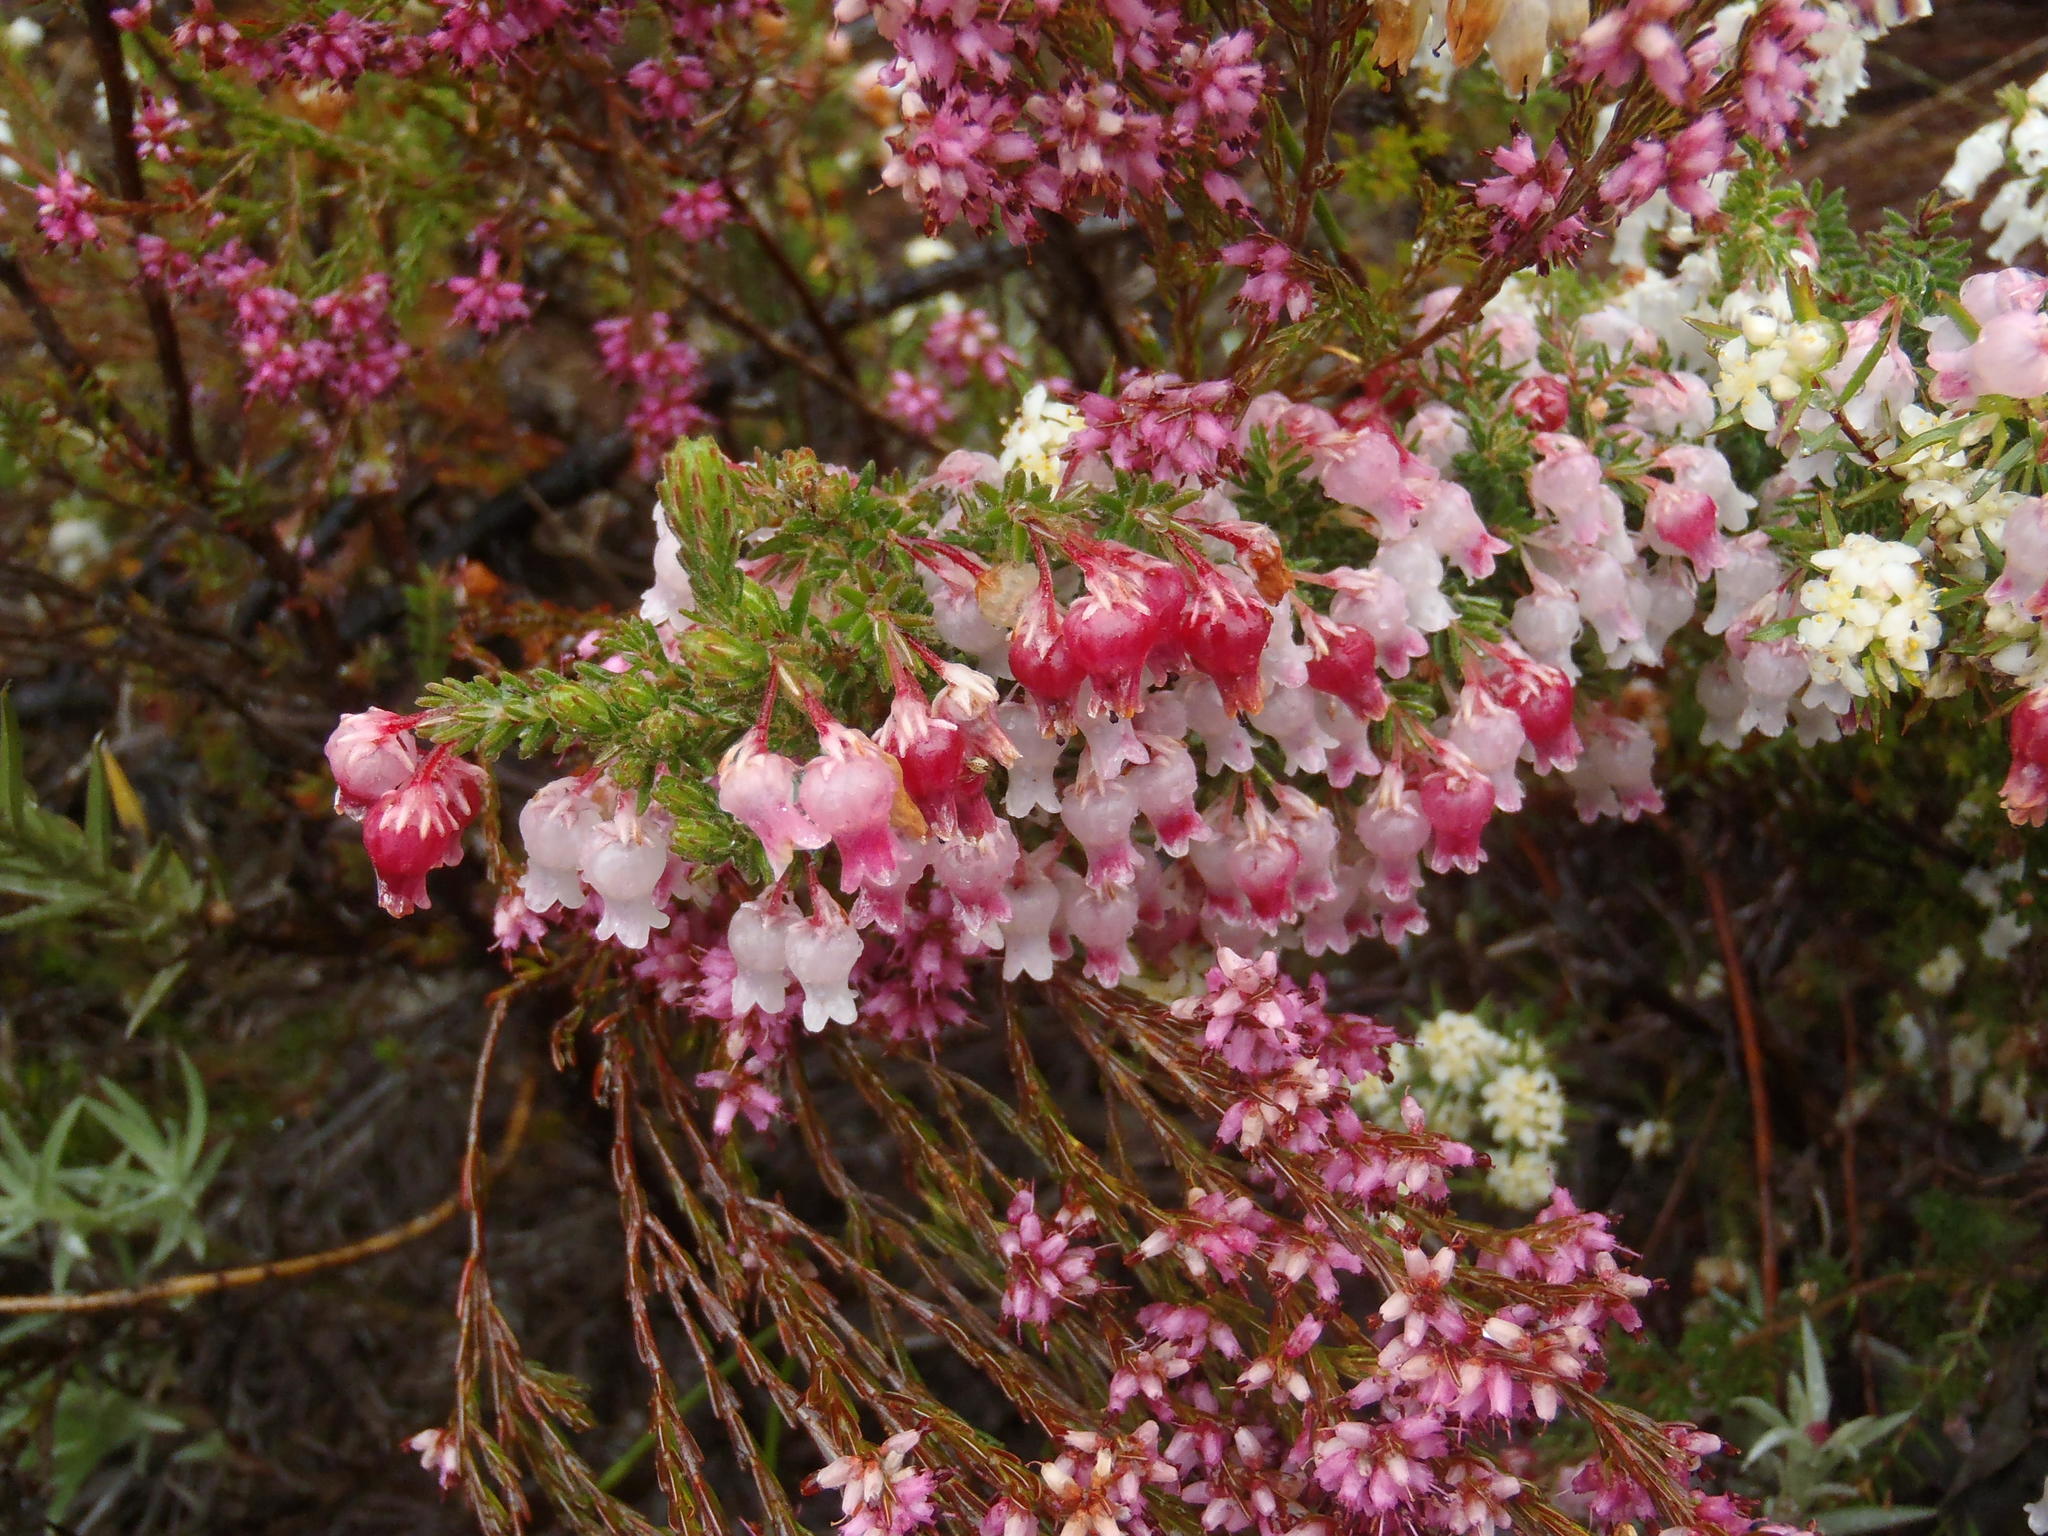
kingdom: Plantae
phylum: Tracheophyta
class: Magnoliopsida
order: Ericales
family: Ericaceae
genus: Erica
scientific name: Erica glomiflora
